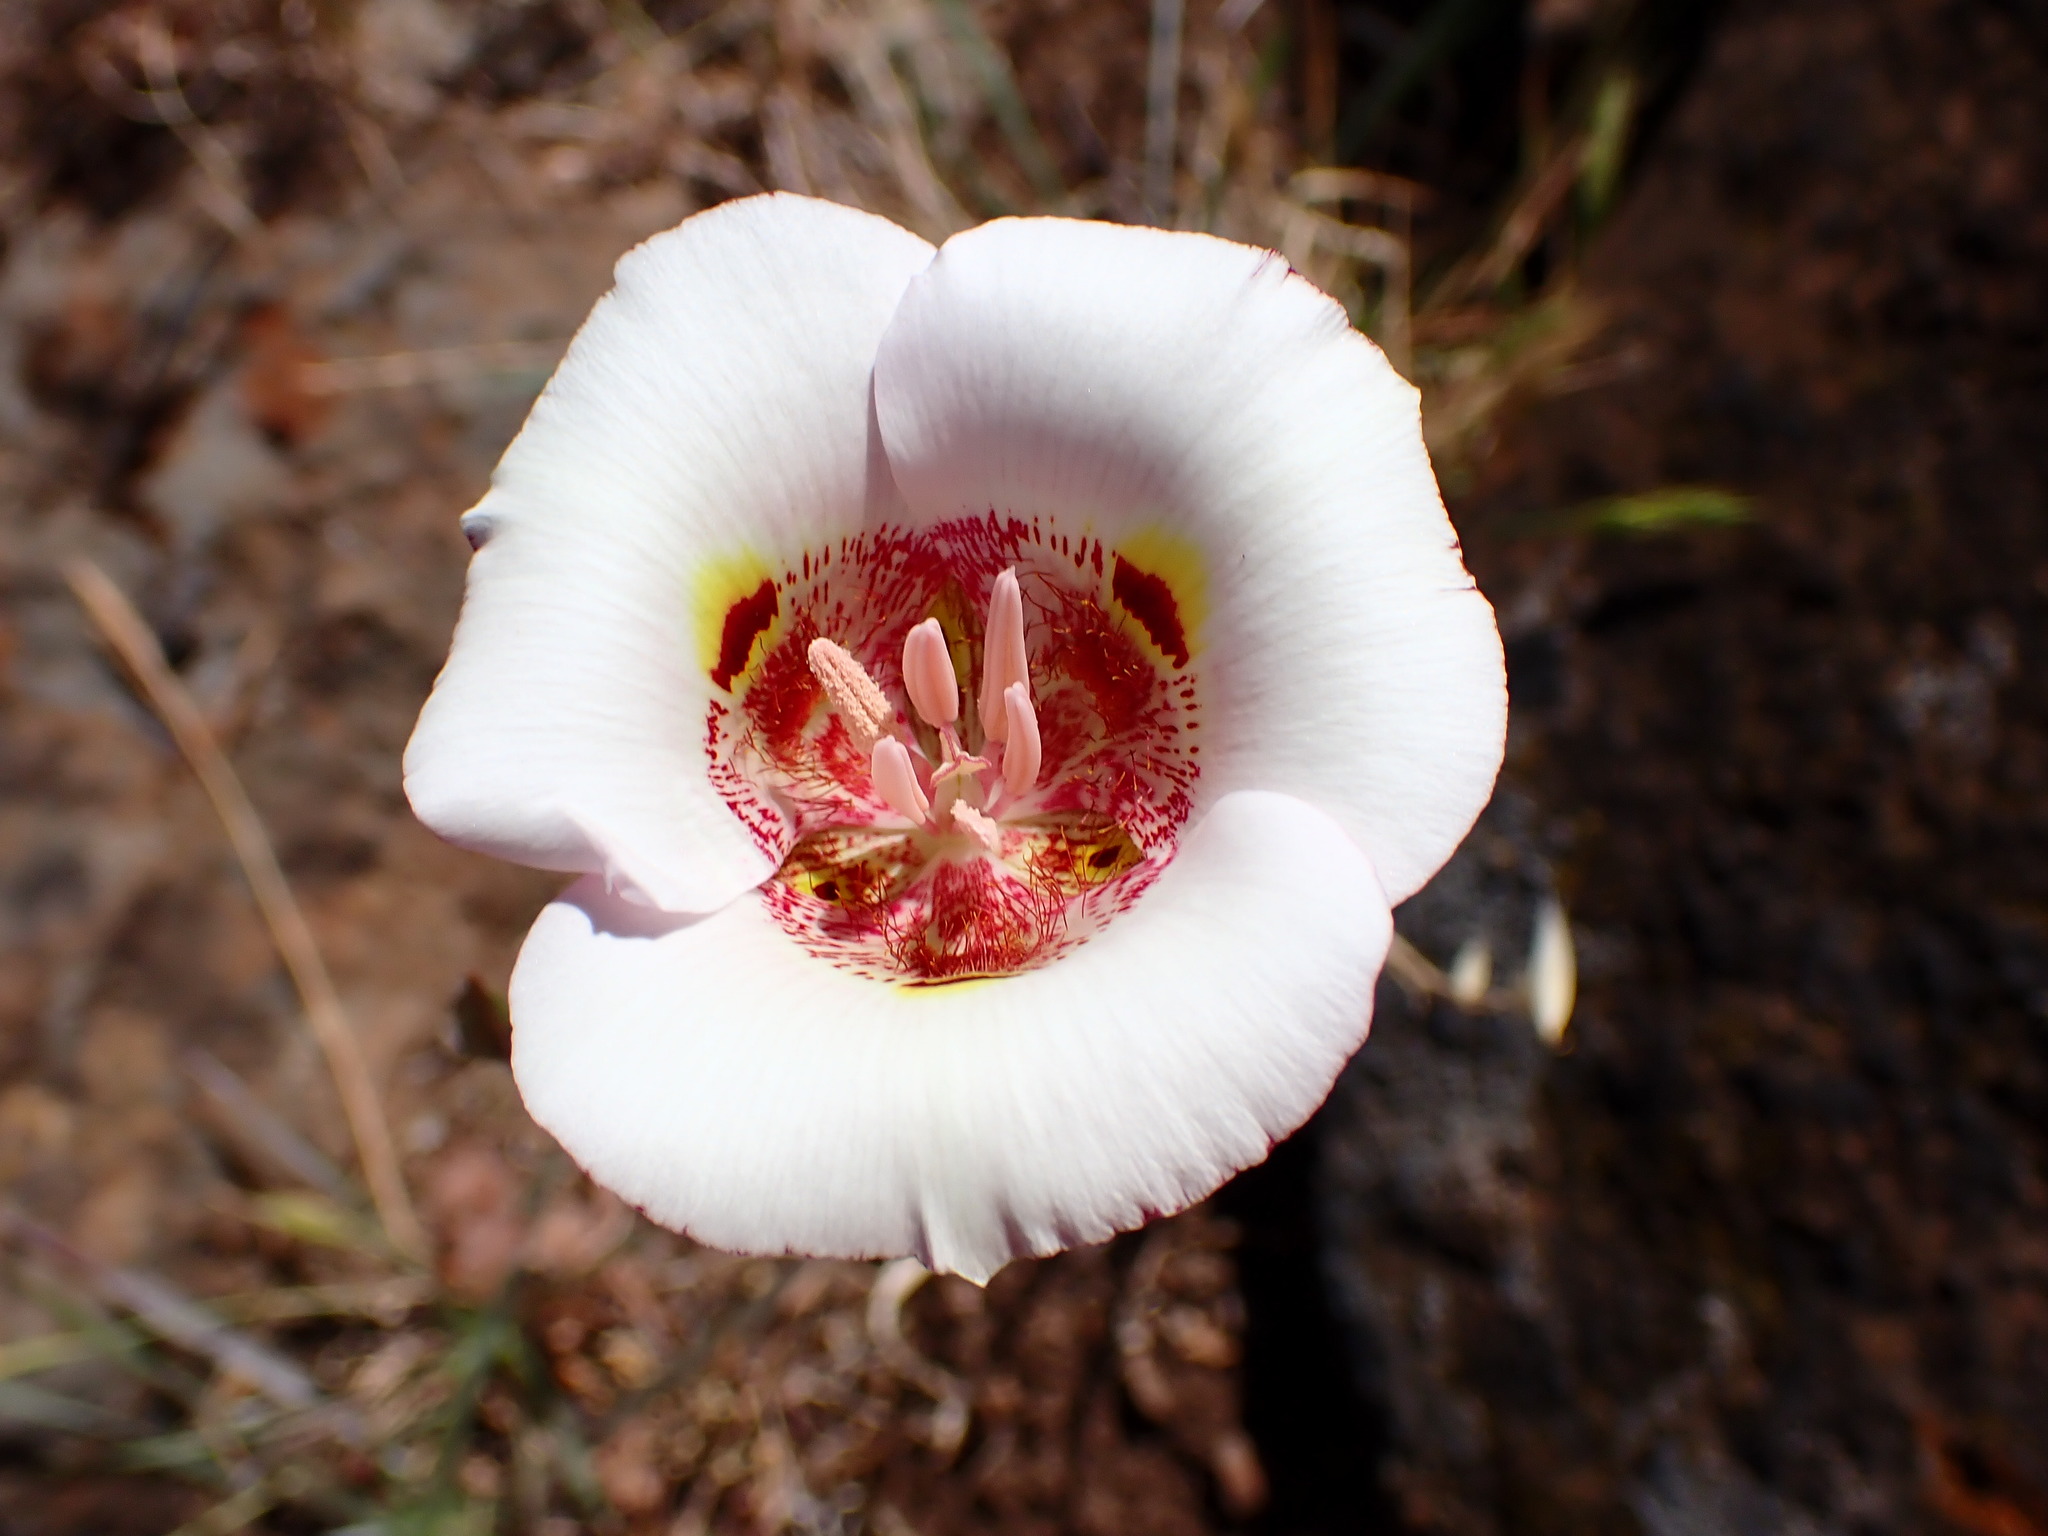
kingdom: Plantae
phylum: Tracheophyta
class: Liliopsida
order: Liliales
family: Liliaceae
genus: Calochortus
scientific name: Calochortus argillosus
